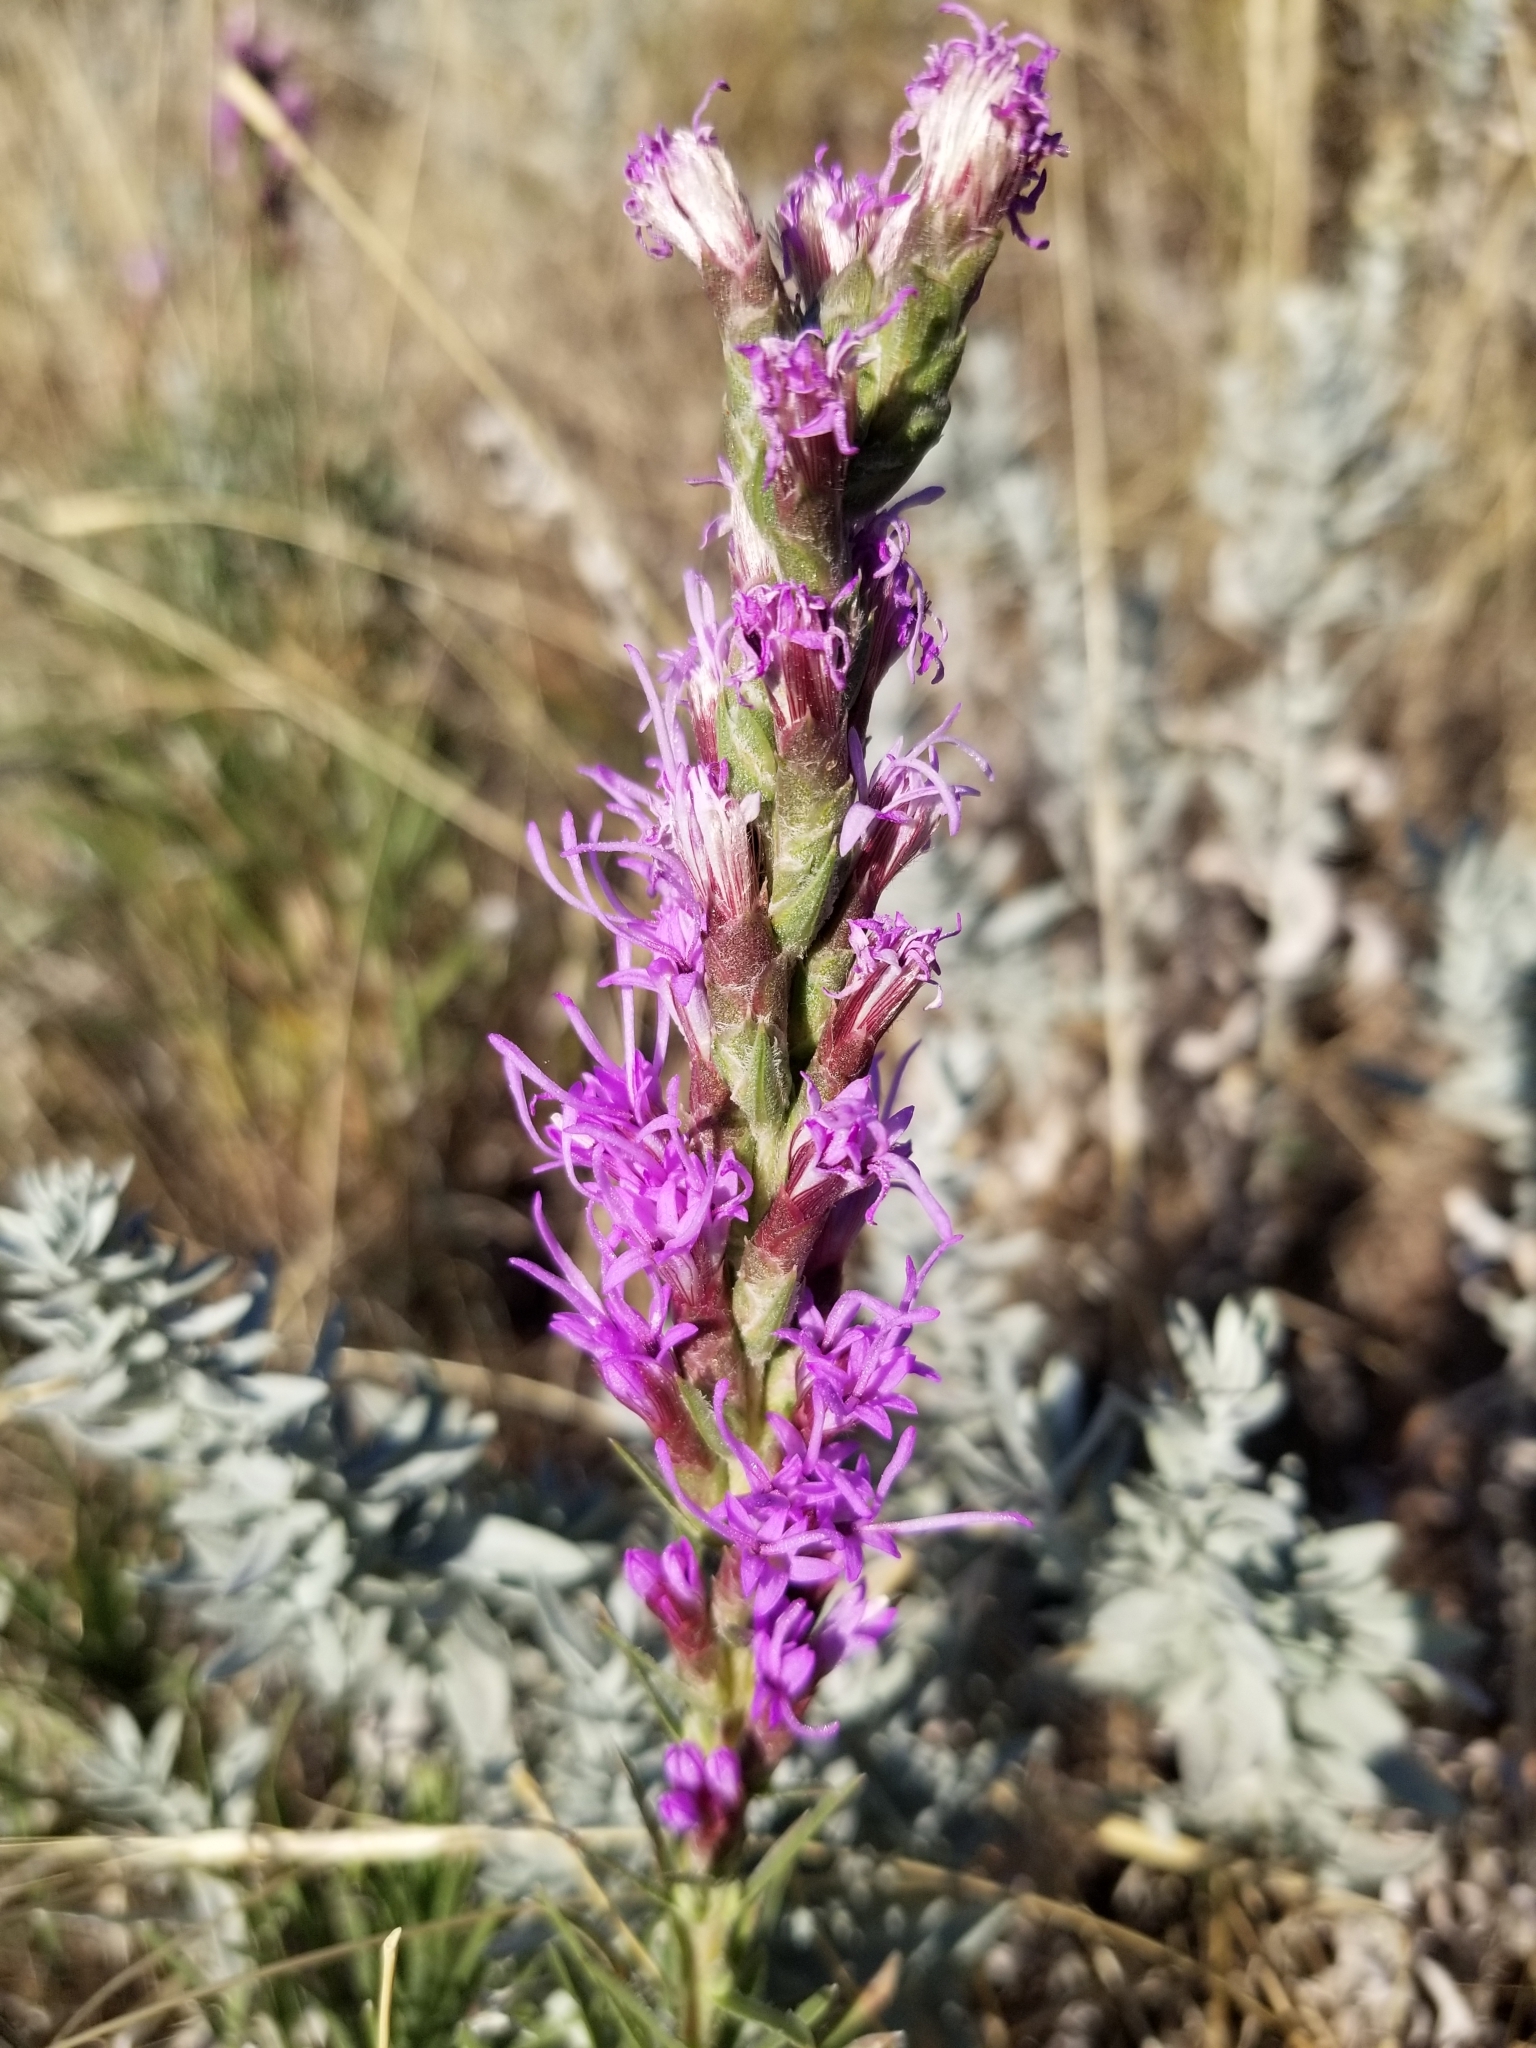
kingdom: Plantae
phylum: Tracheophyta
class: Magnoliopsida
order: Asterales
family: Asteraceae
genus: Liatris
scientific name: Liatris punctata
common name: Dotted gayfeather
